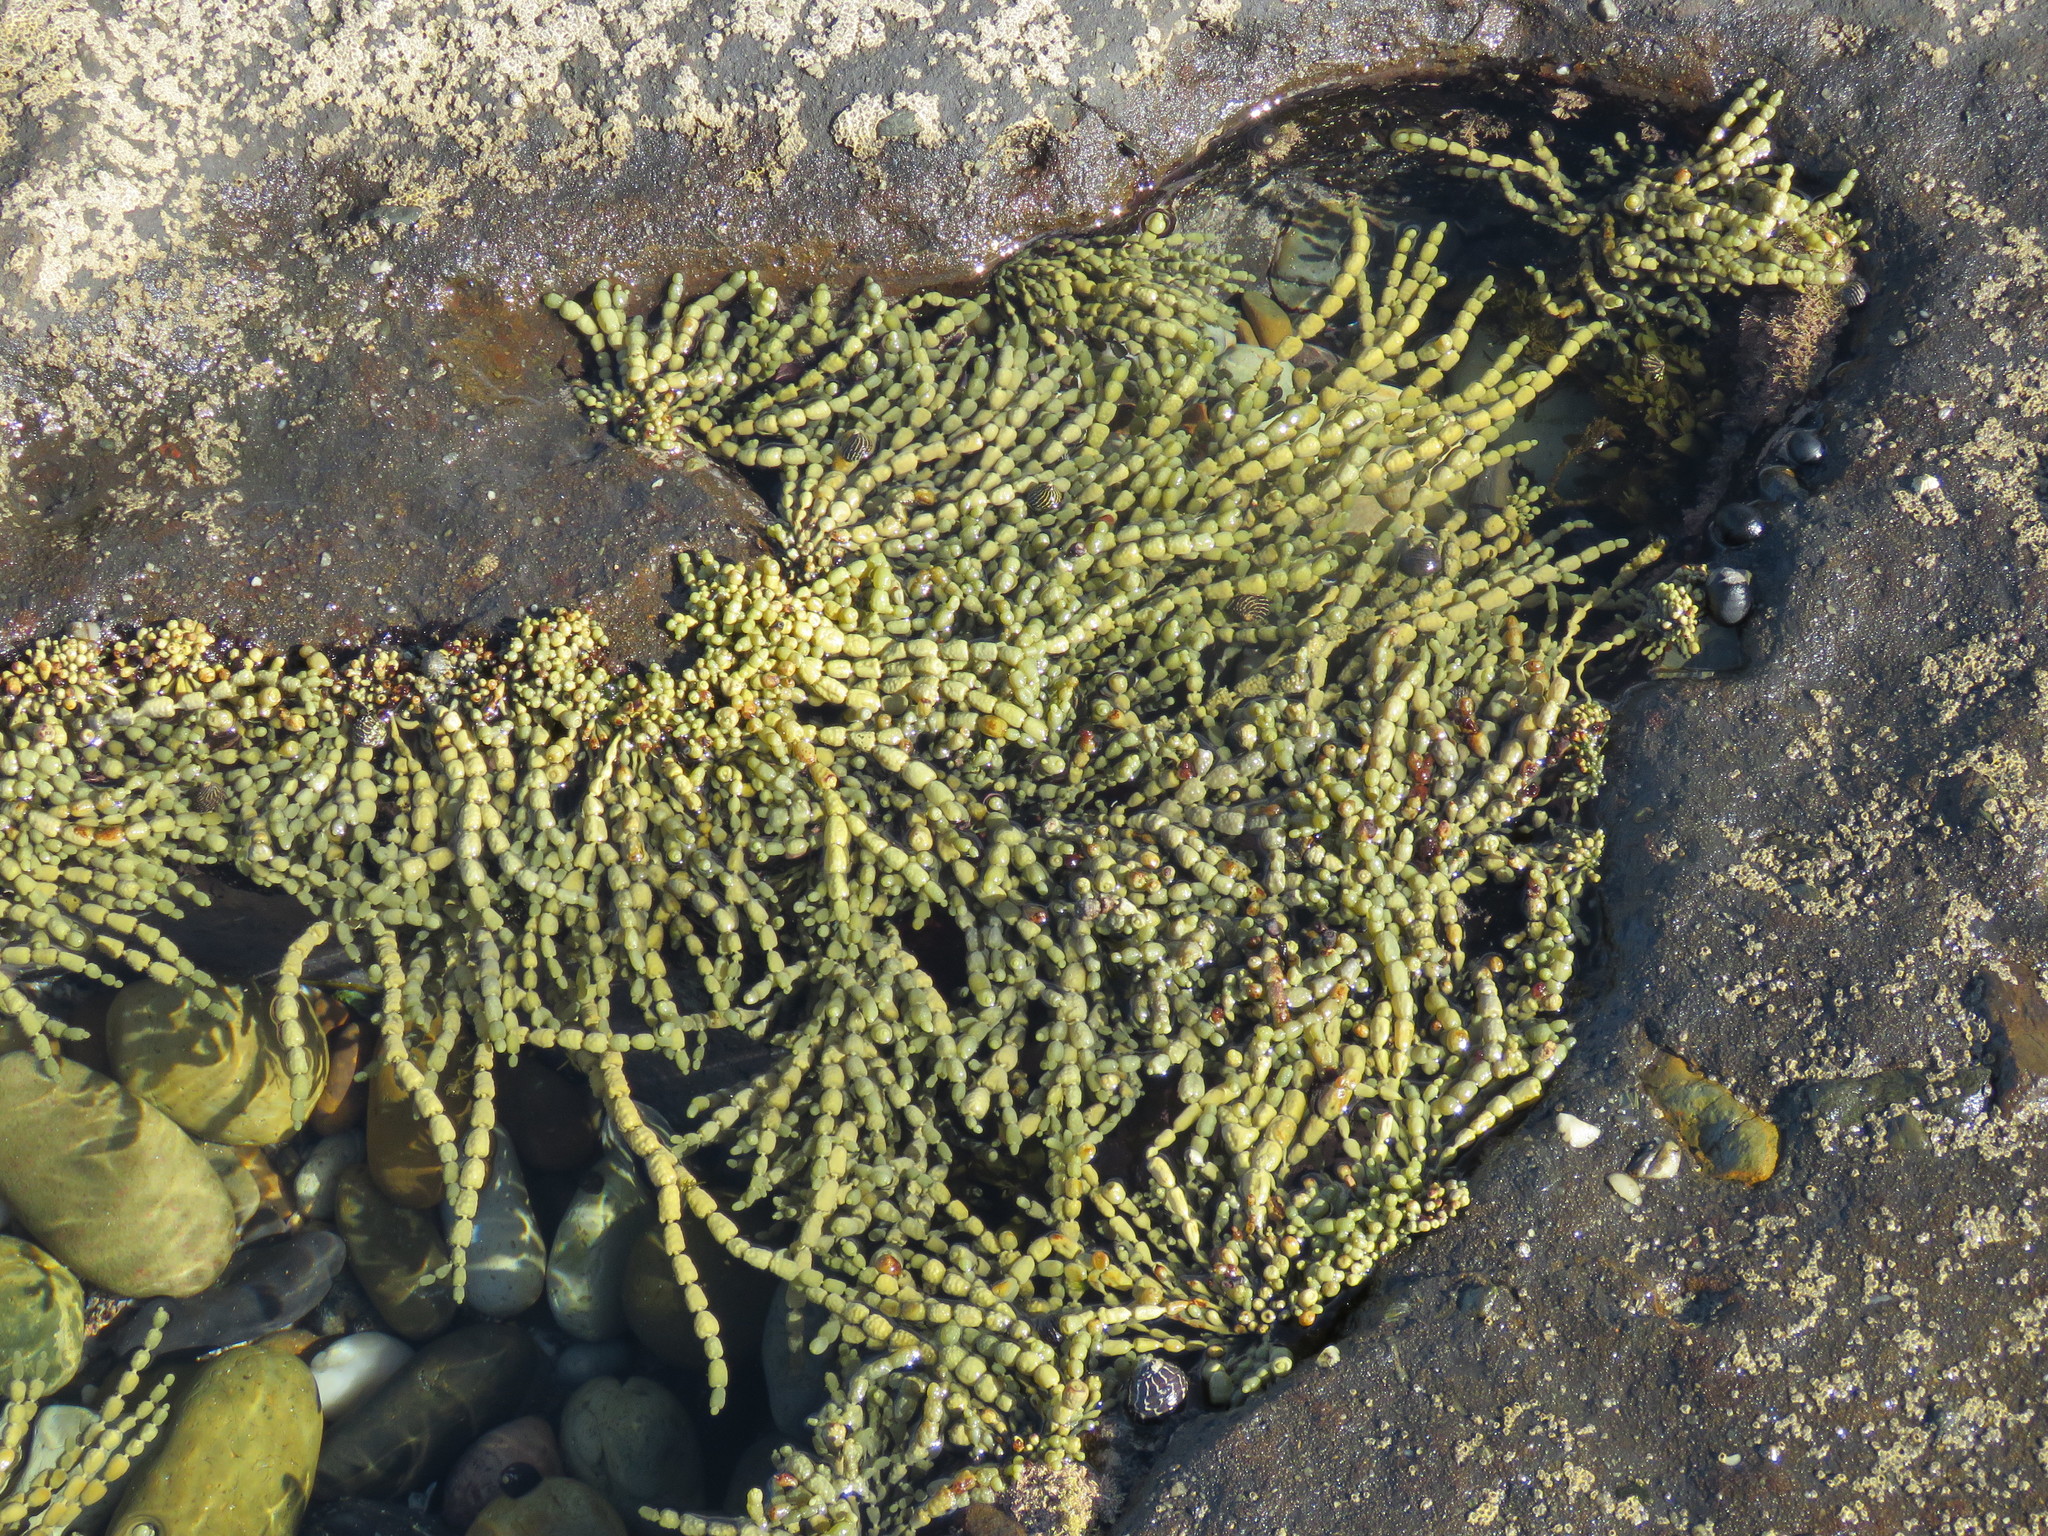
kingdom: Chromista
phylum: Ochrophyta
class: Phaeophyceae
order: Fucales
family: Hormosiraceae
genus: Hormosira
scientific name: Hormosira banksii
